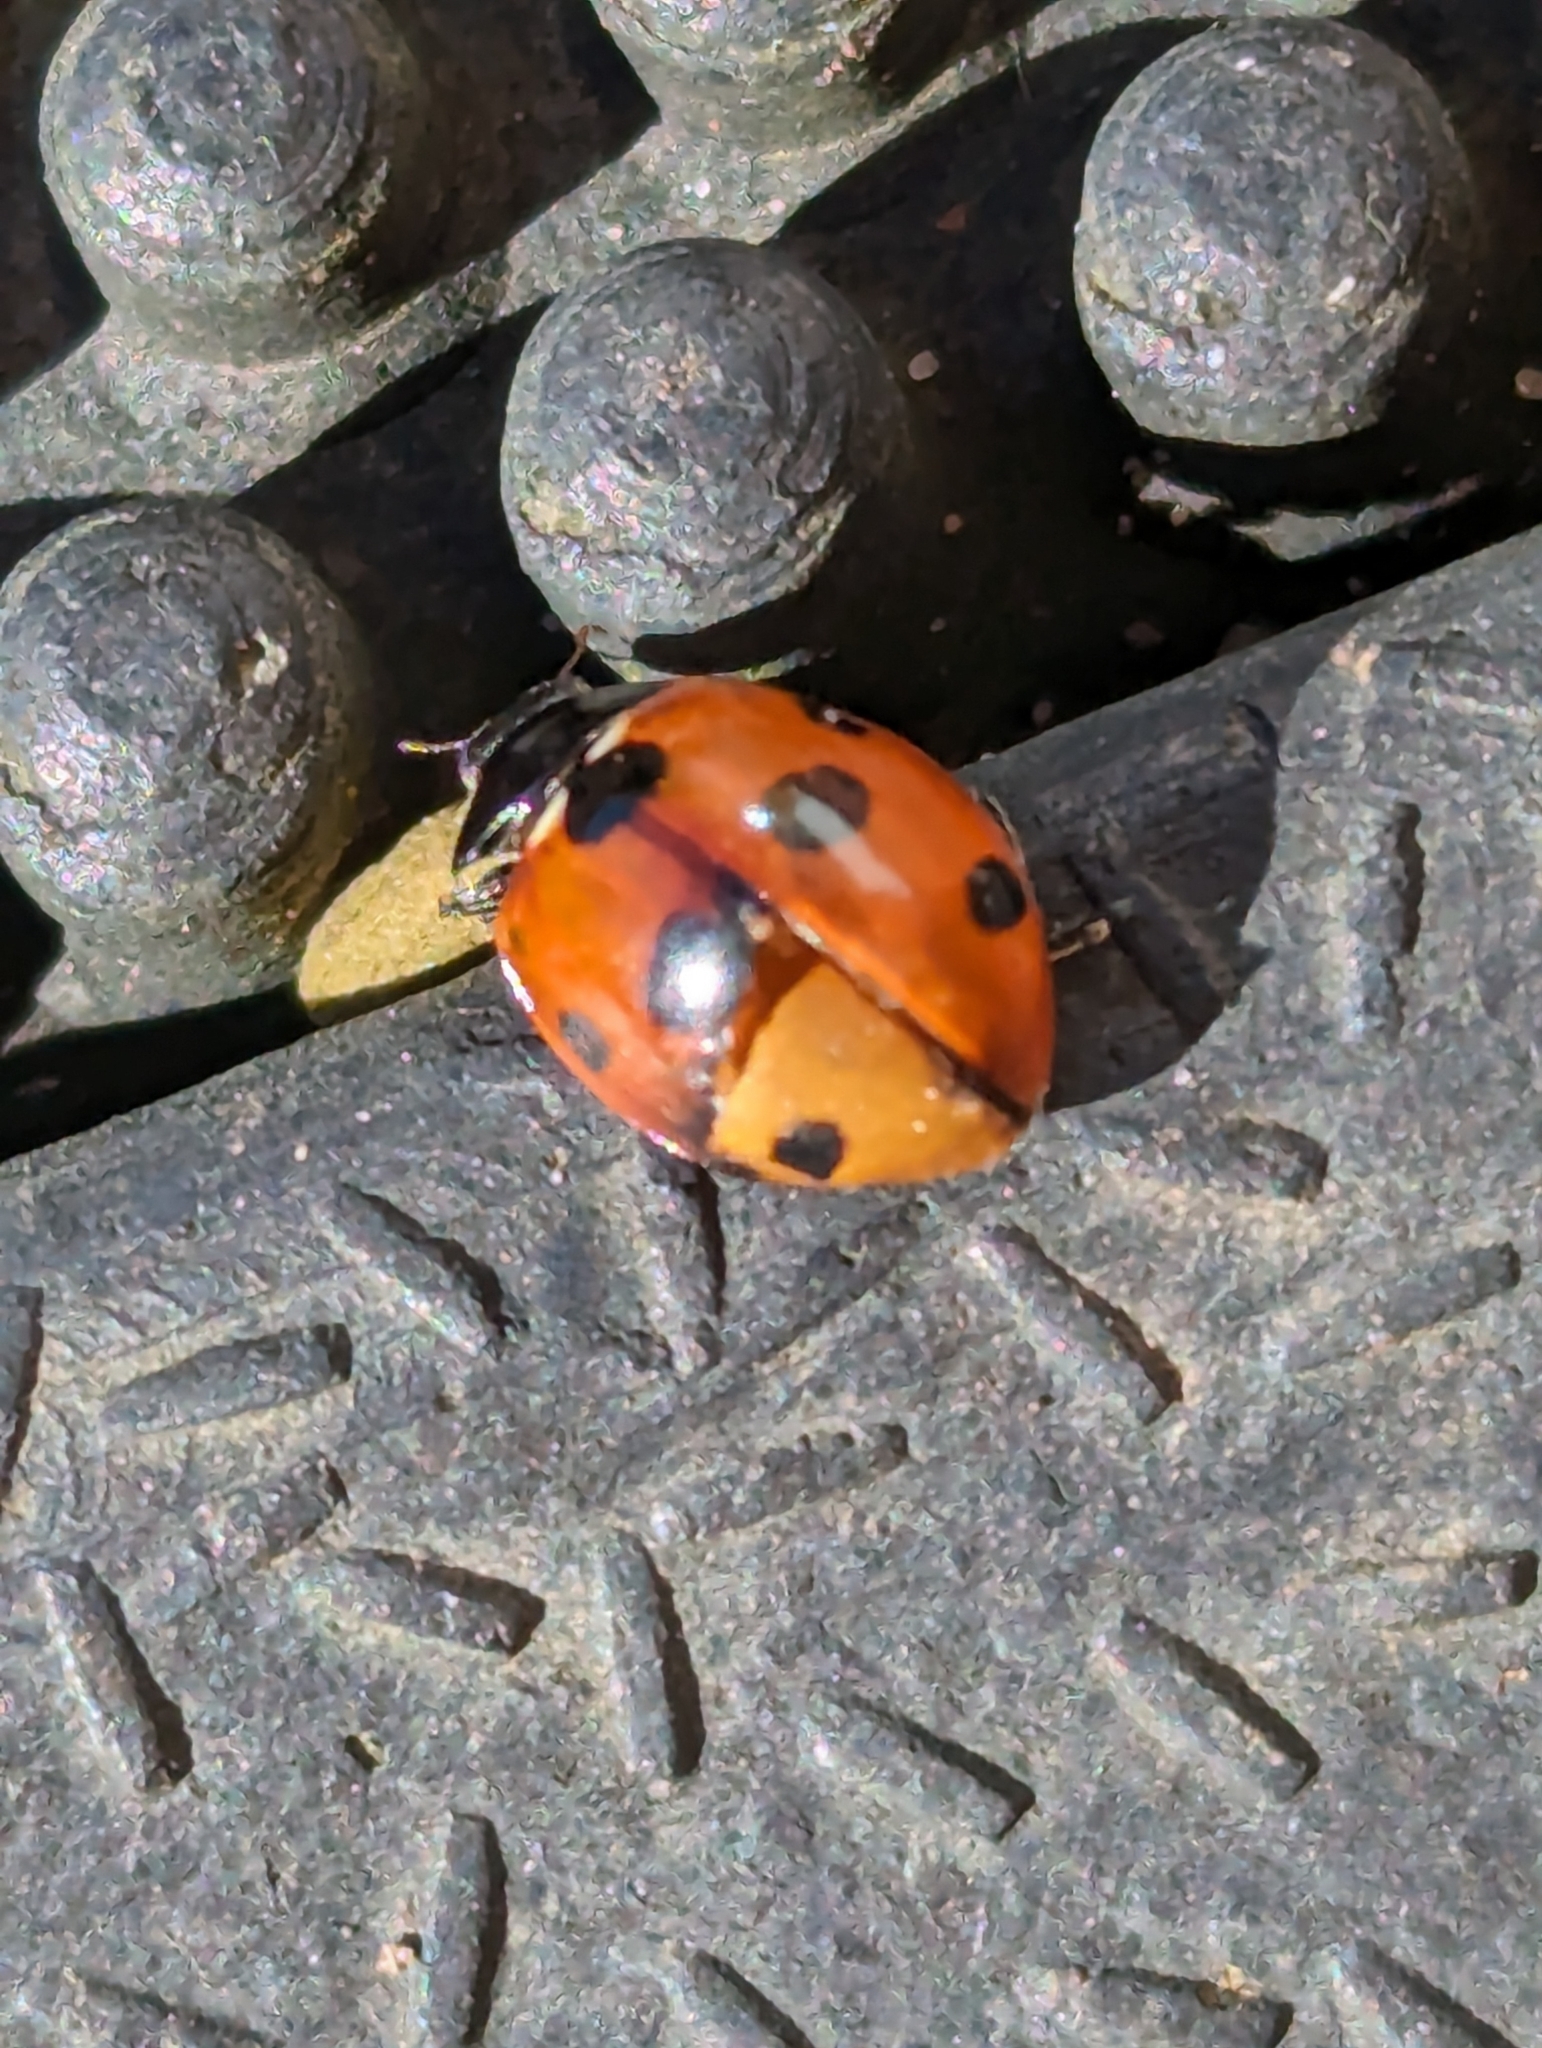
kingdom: Animalia
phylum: Arthropoda
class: Insecta
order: Coleoptera
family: Coccinellidae
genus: Coccinella
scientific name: Coccinella septempunctata
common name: Sevenspotted lady beetle
